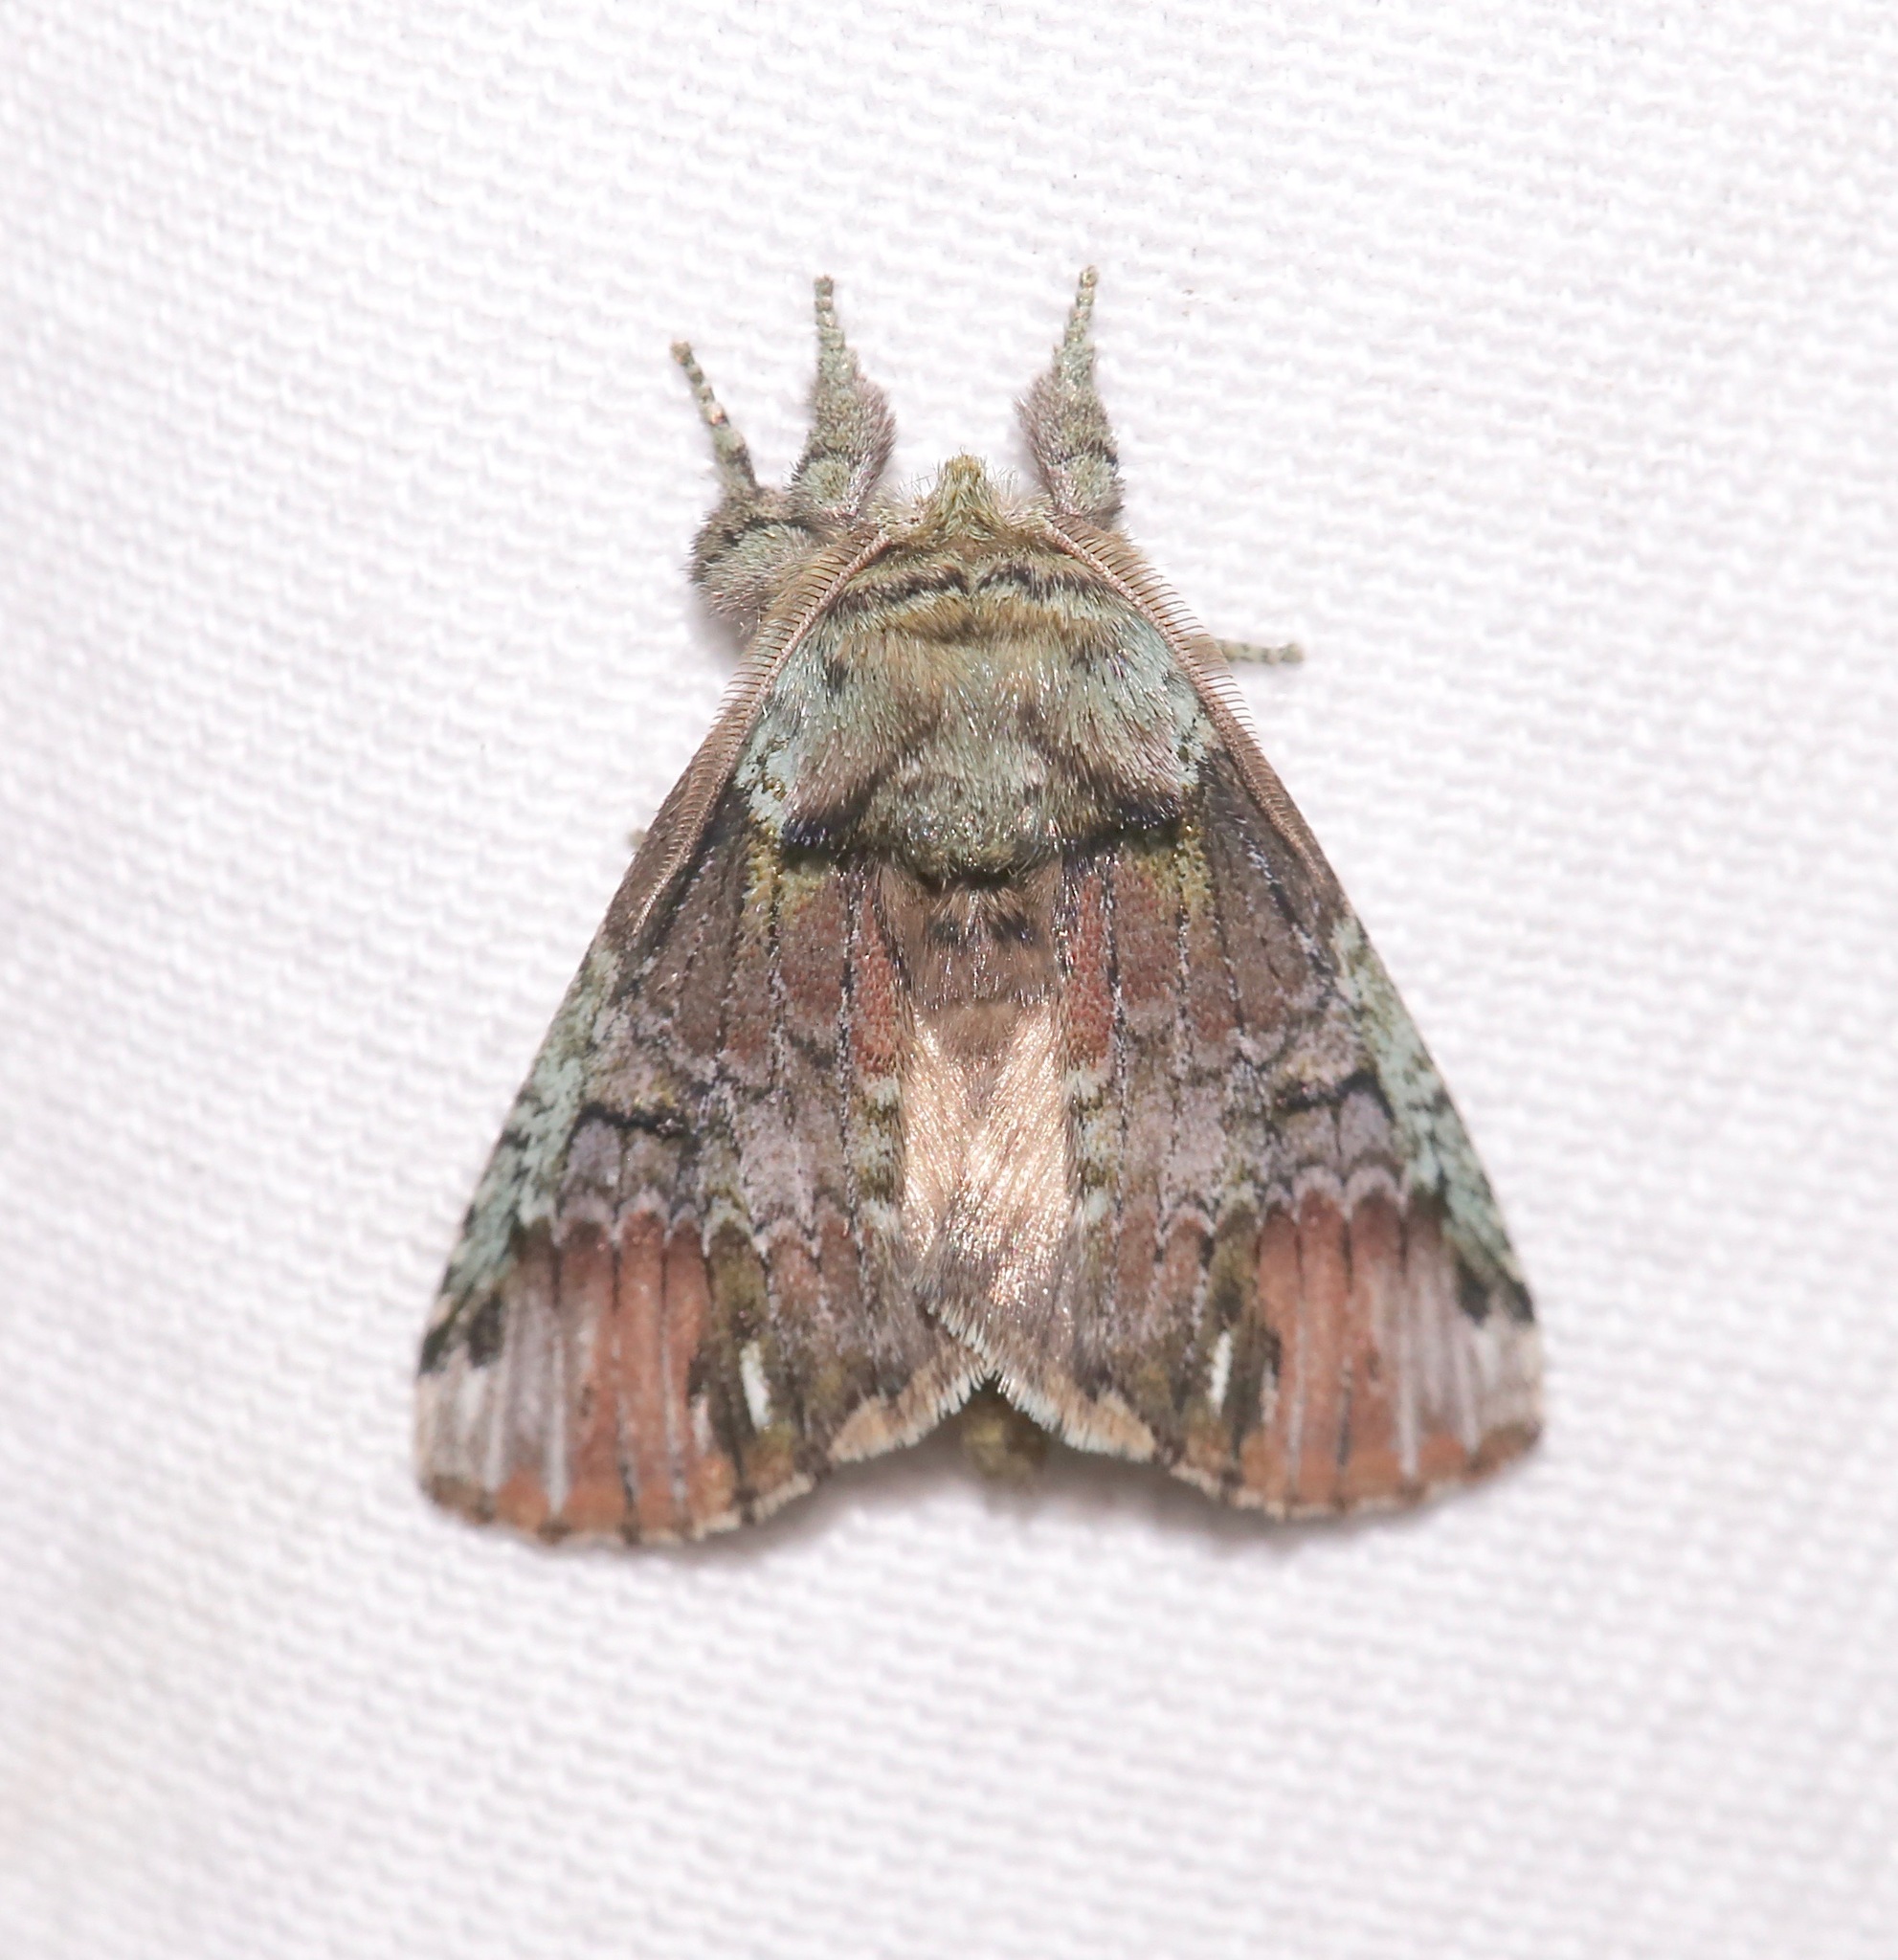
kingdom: Animalia
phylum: Arthropoda
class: Insecta
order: Lepidoptera
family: Notodontidae
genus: Schizura
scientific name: Schizura
